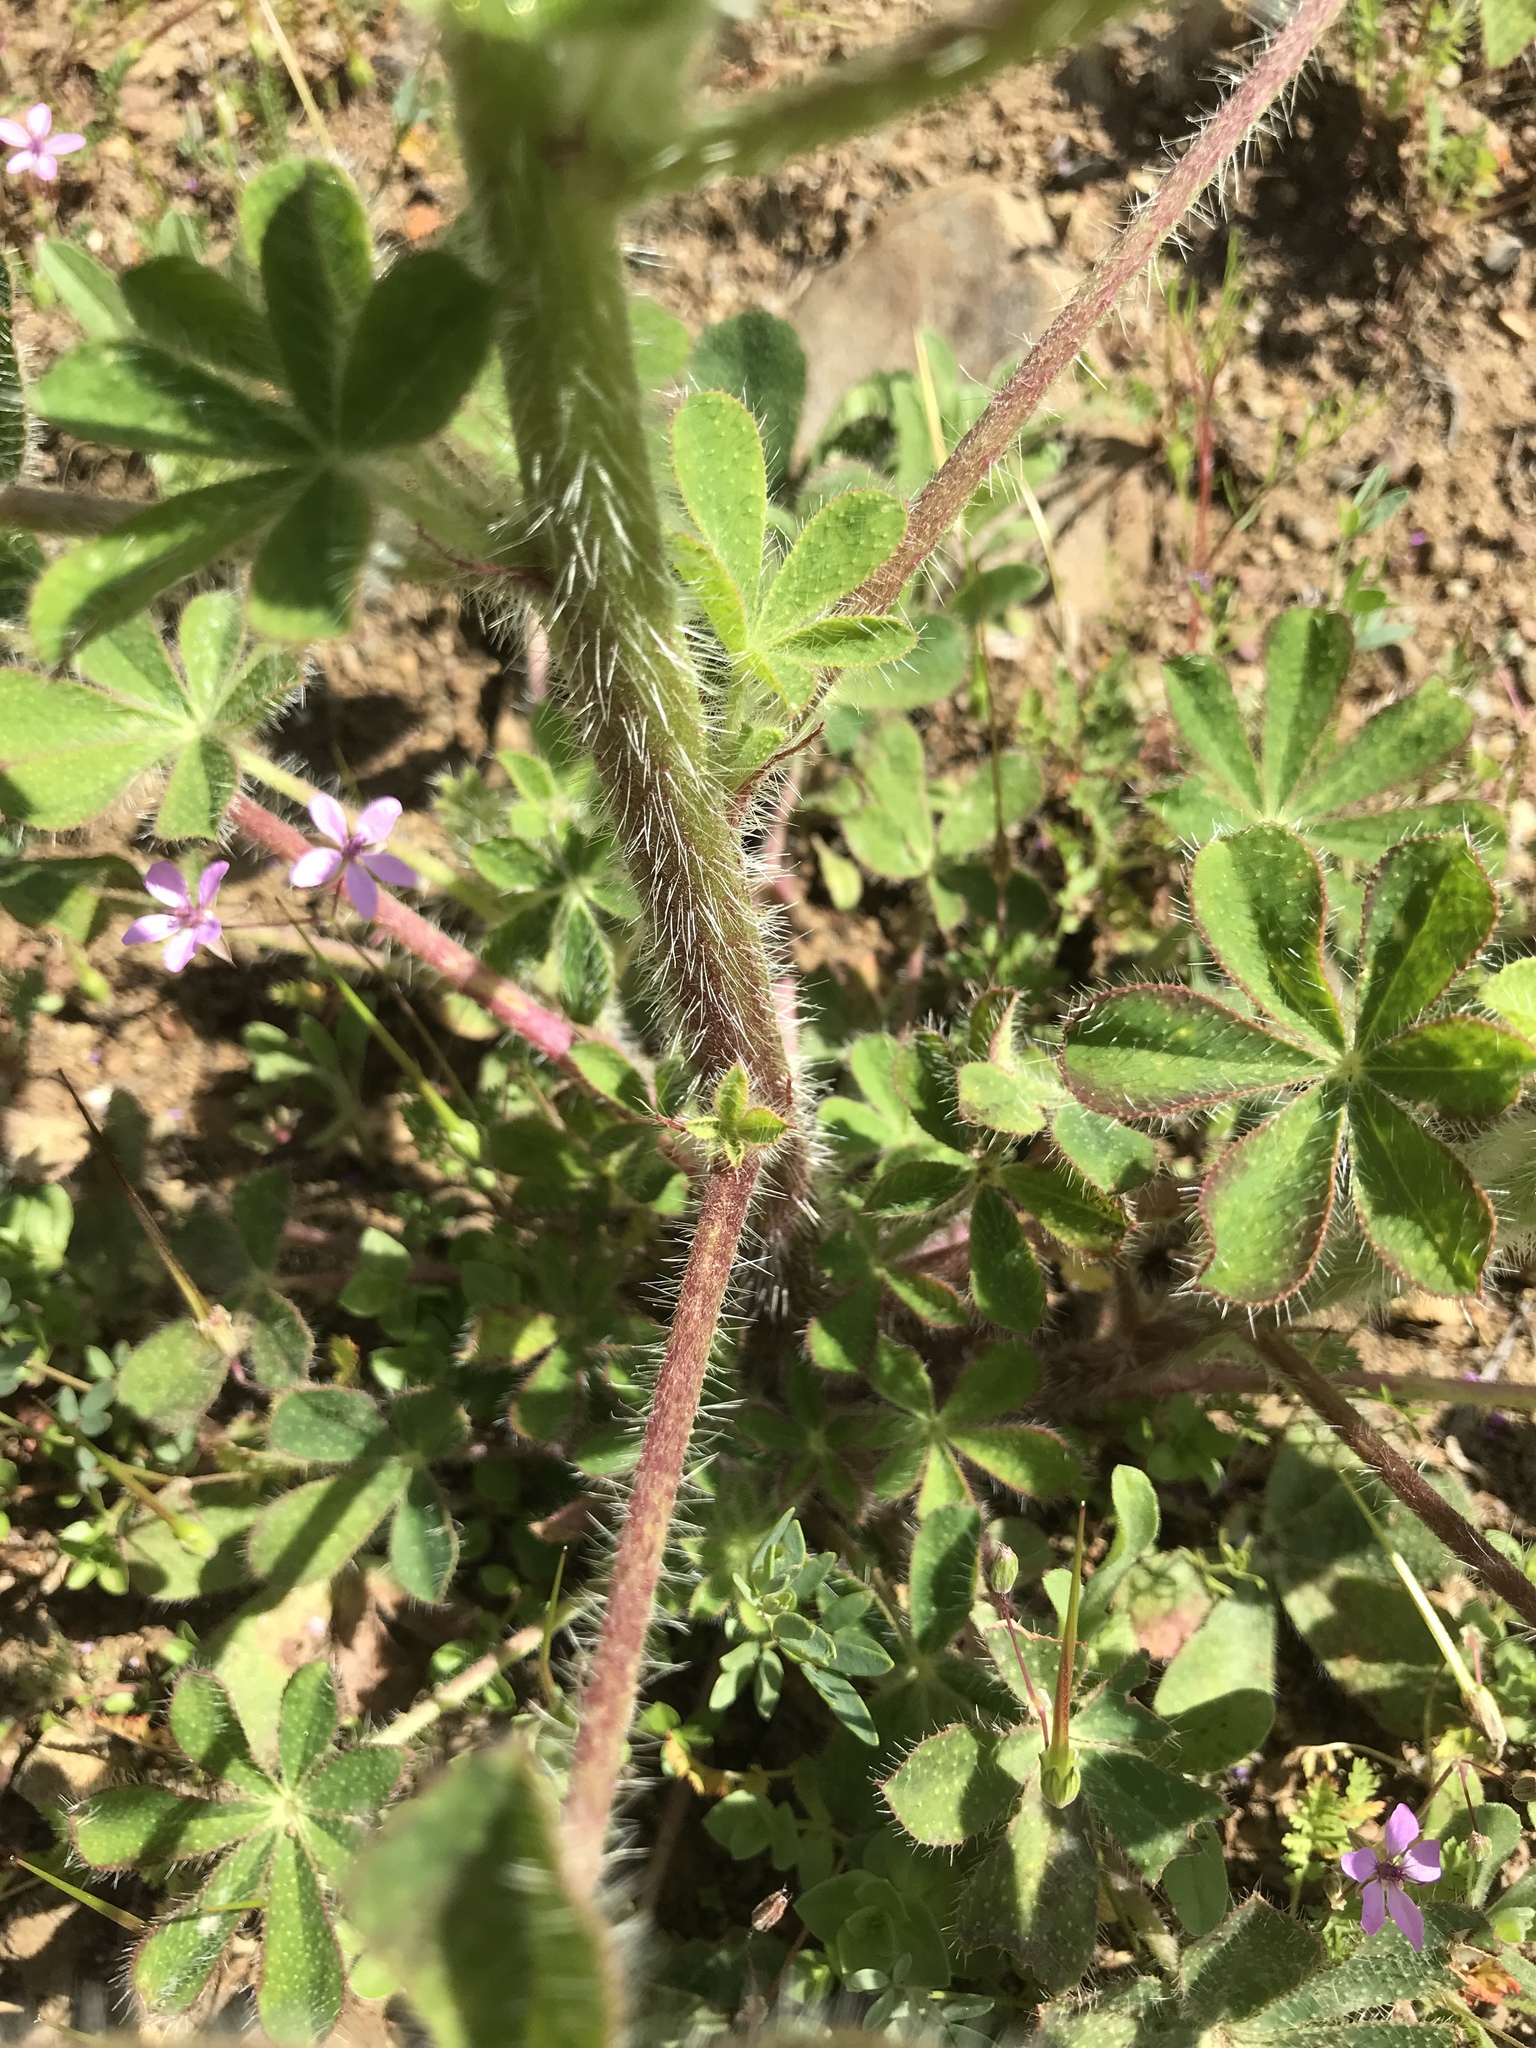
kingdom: Plantae
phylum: Tracheophyta
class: Magnoliopsida
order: Fabales
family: Fabaceae
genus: Lupinus
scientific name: Lupinus hirsutissimus
